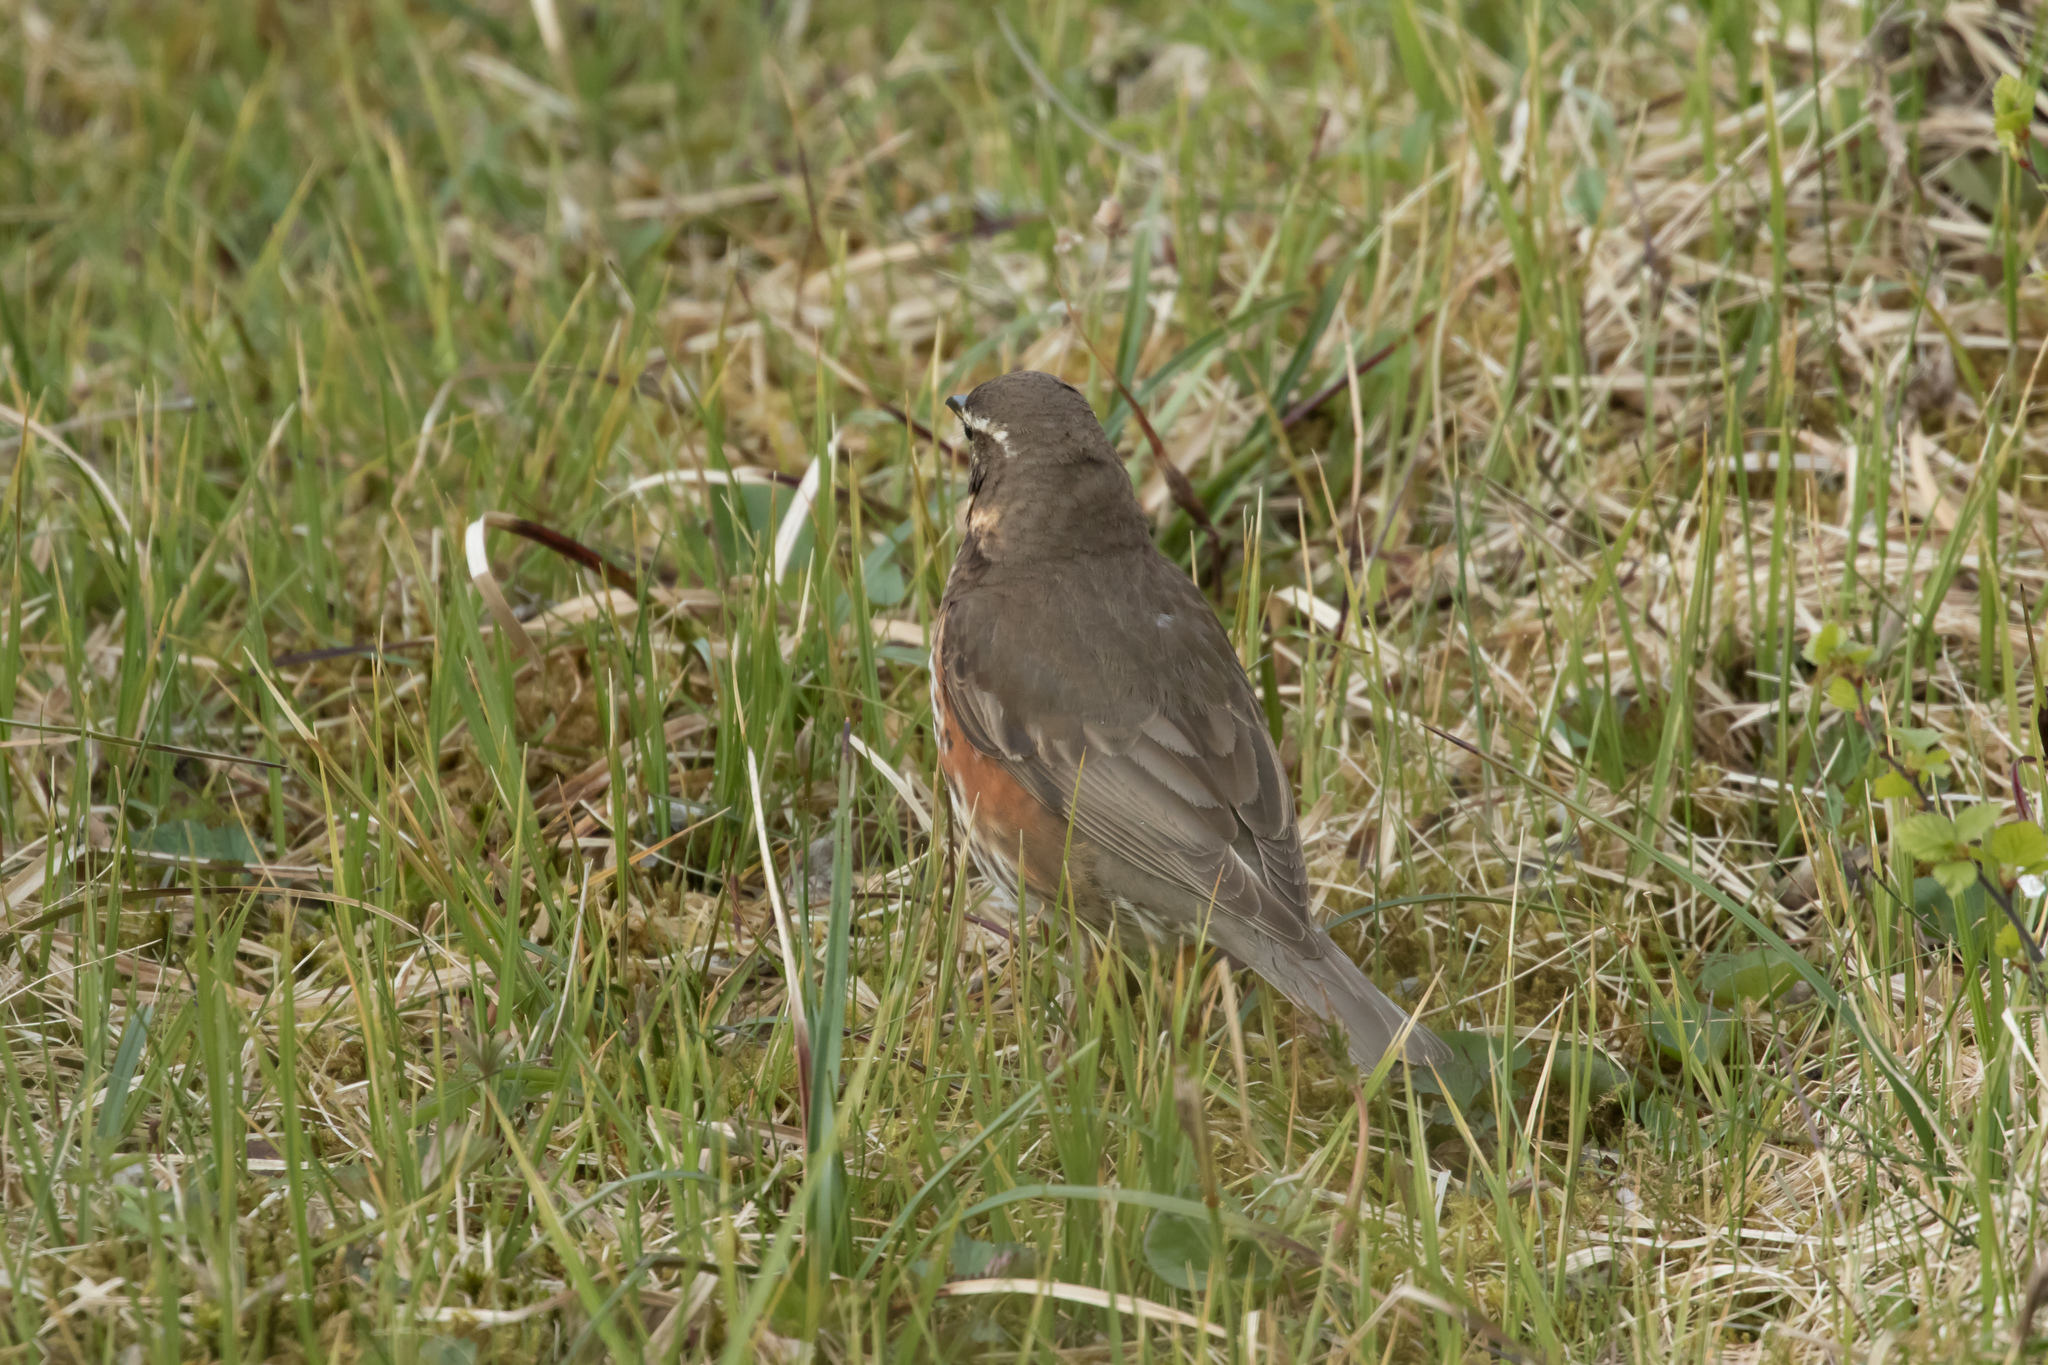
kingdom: Animalia
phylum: Chordata
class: Aves
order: Passeriformes
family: Turdidae
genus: Turdus
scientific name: Turdus iliacus
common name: Redwing
